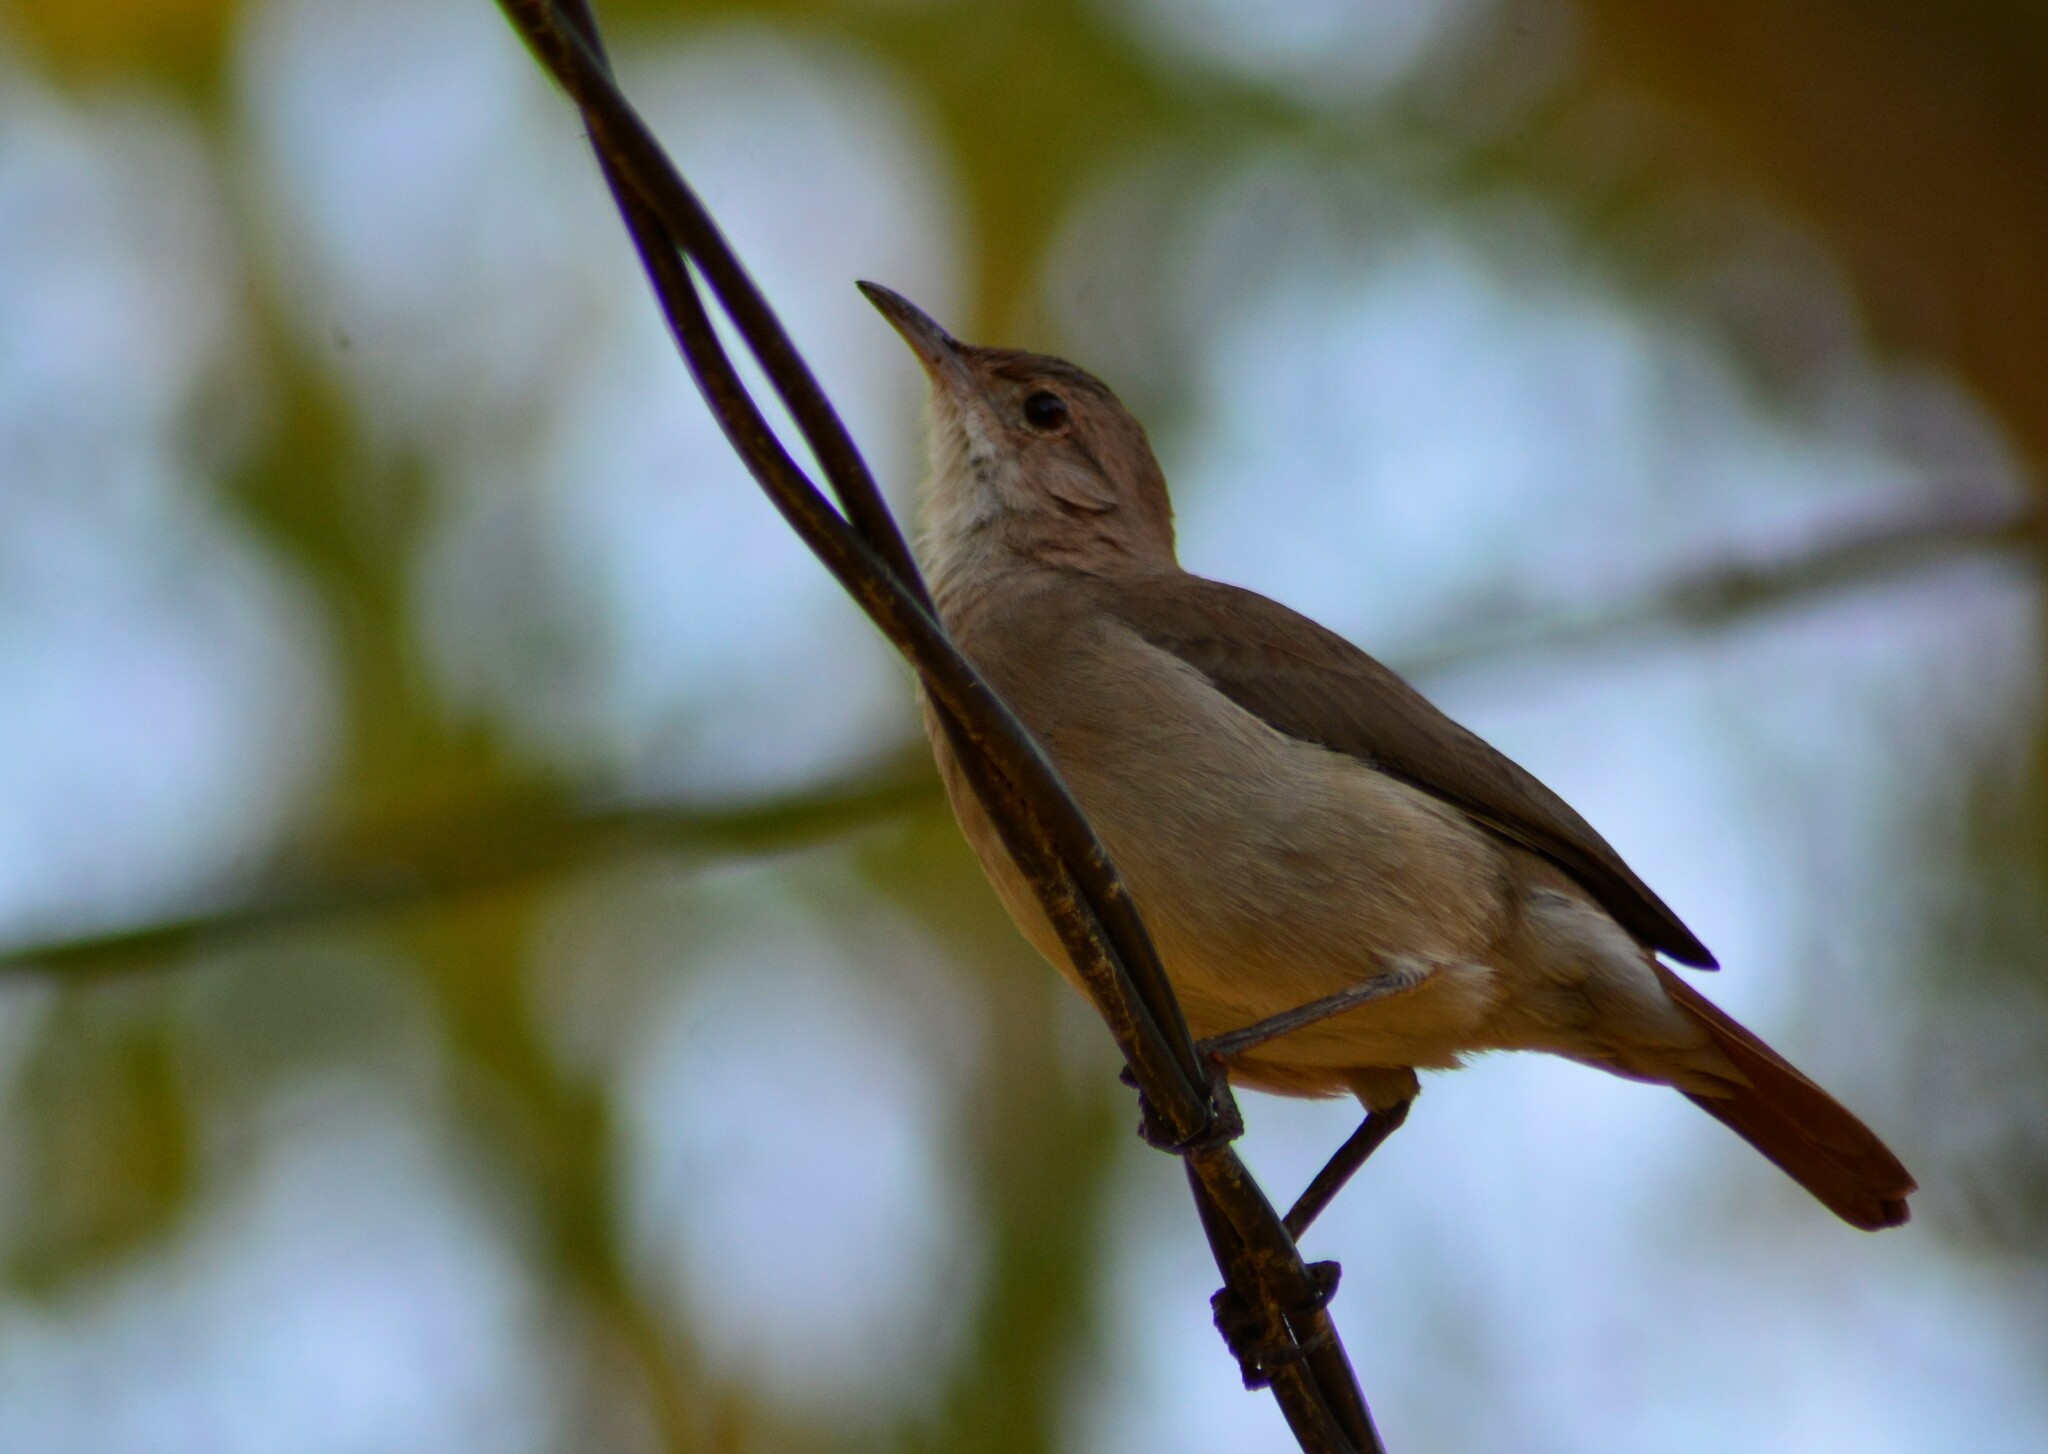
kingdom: Animalia
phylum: Chordata
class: Aves
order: Passeriformes
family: Furnariidae
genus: Furnarius
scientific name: Furnarius rufus
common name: Rufous hornero
